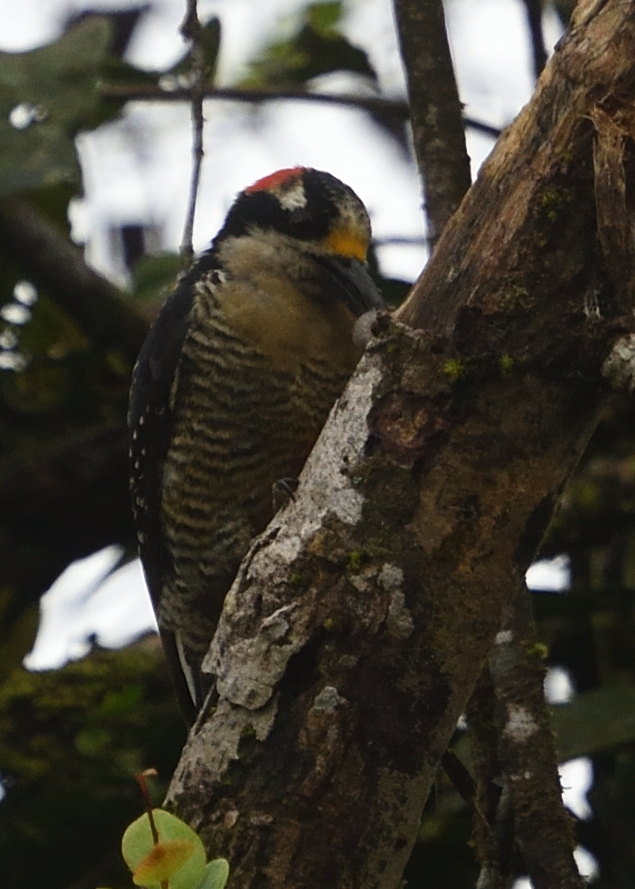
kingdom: Animalia
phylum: Chordata
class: Aves
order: Piciformes
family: Picidae
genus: Melanerpes
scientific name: Melanerpes pucherani
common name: Black-cheeked woodpecker
